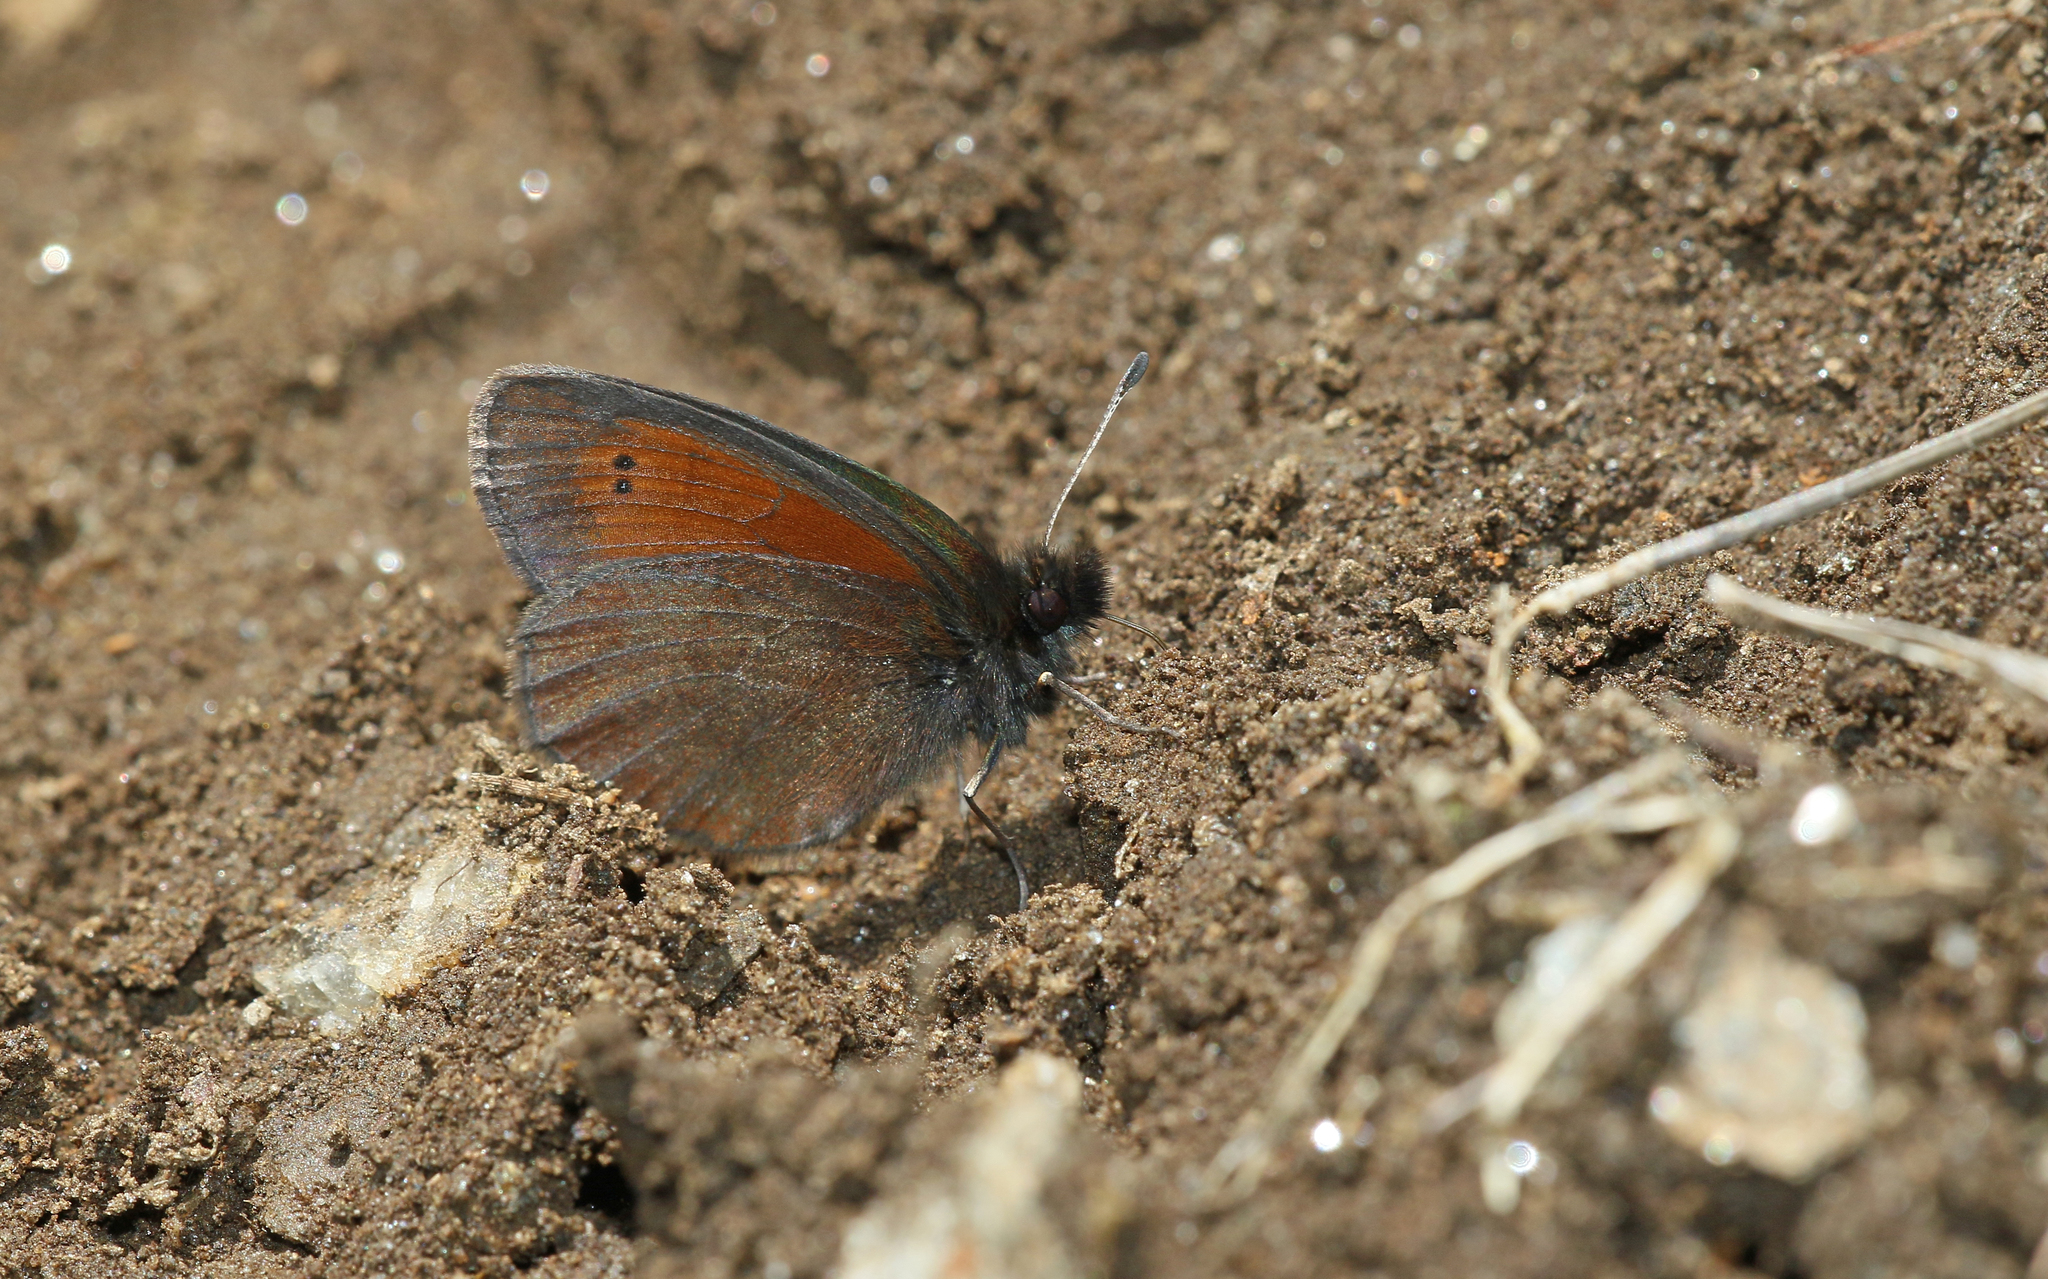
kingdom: Animalia
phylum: Arthropoda
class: Insecta
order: Lepidoptera
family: Nymphalidae
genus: Erebia
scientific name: Erebia mnestra
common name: Mnestra’s ringlet
